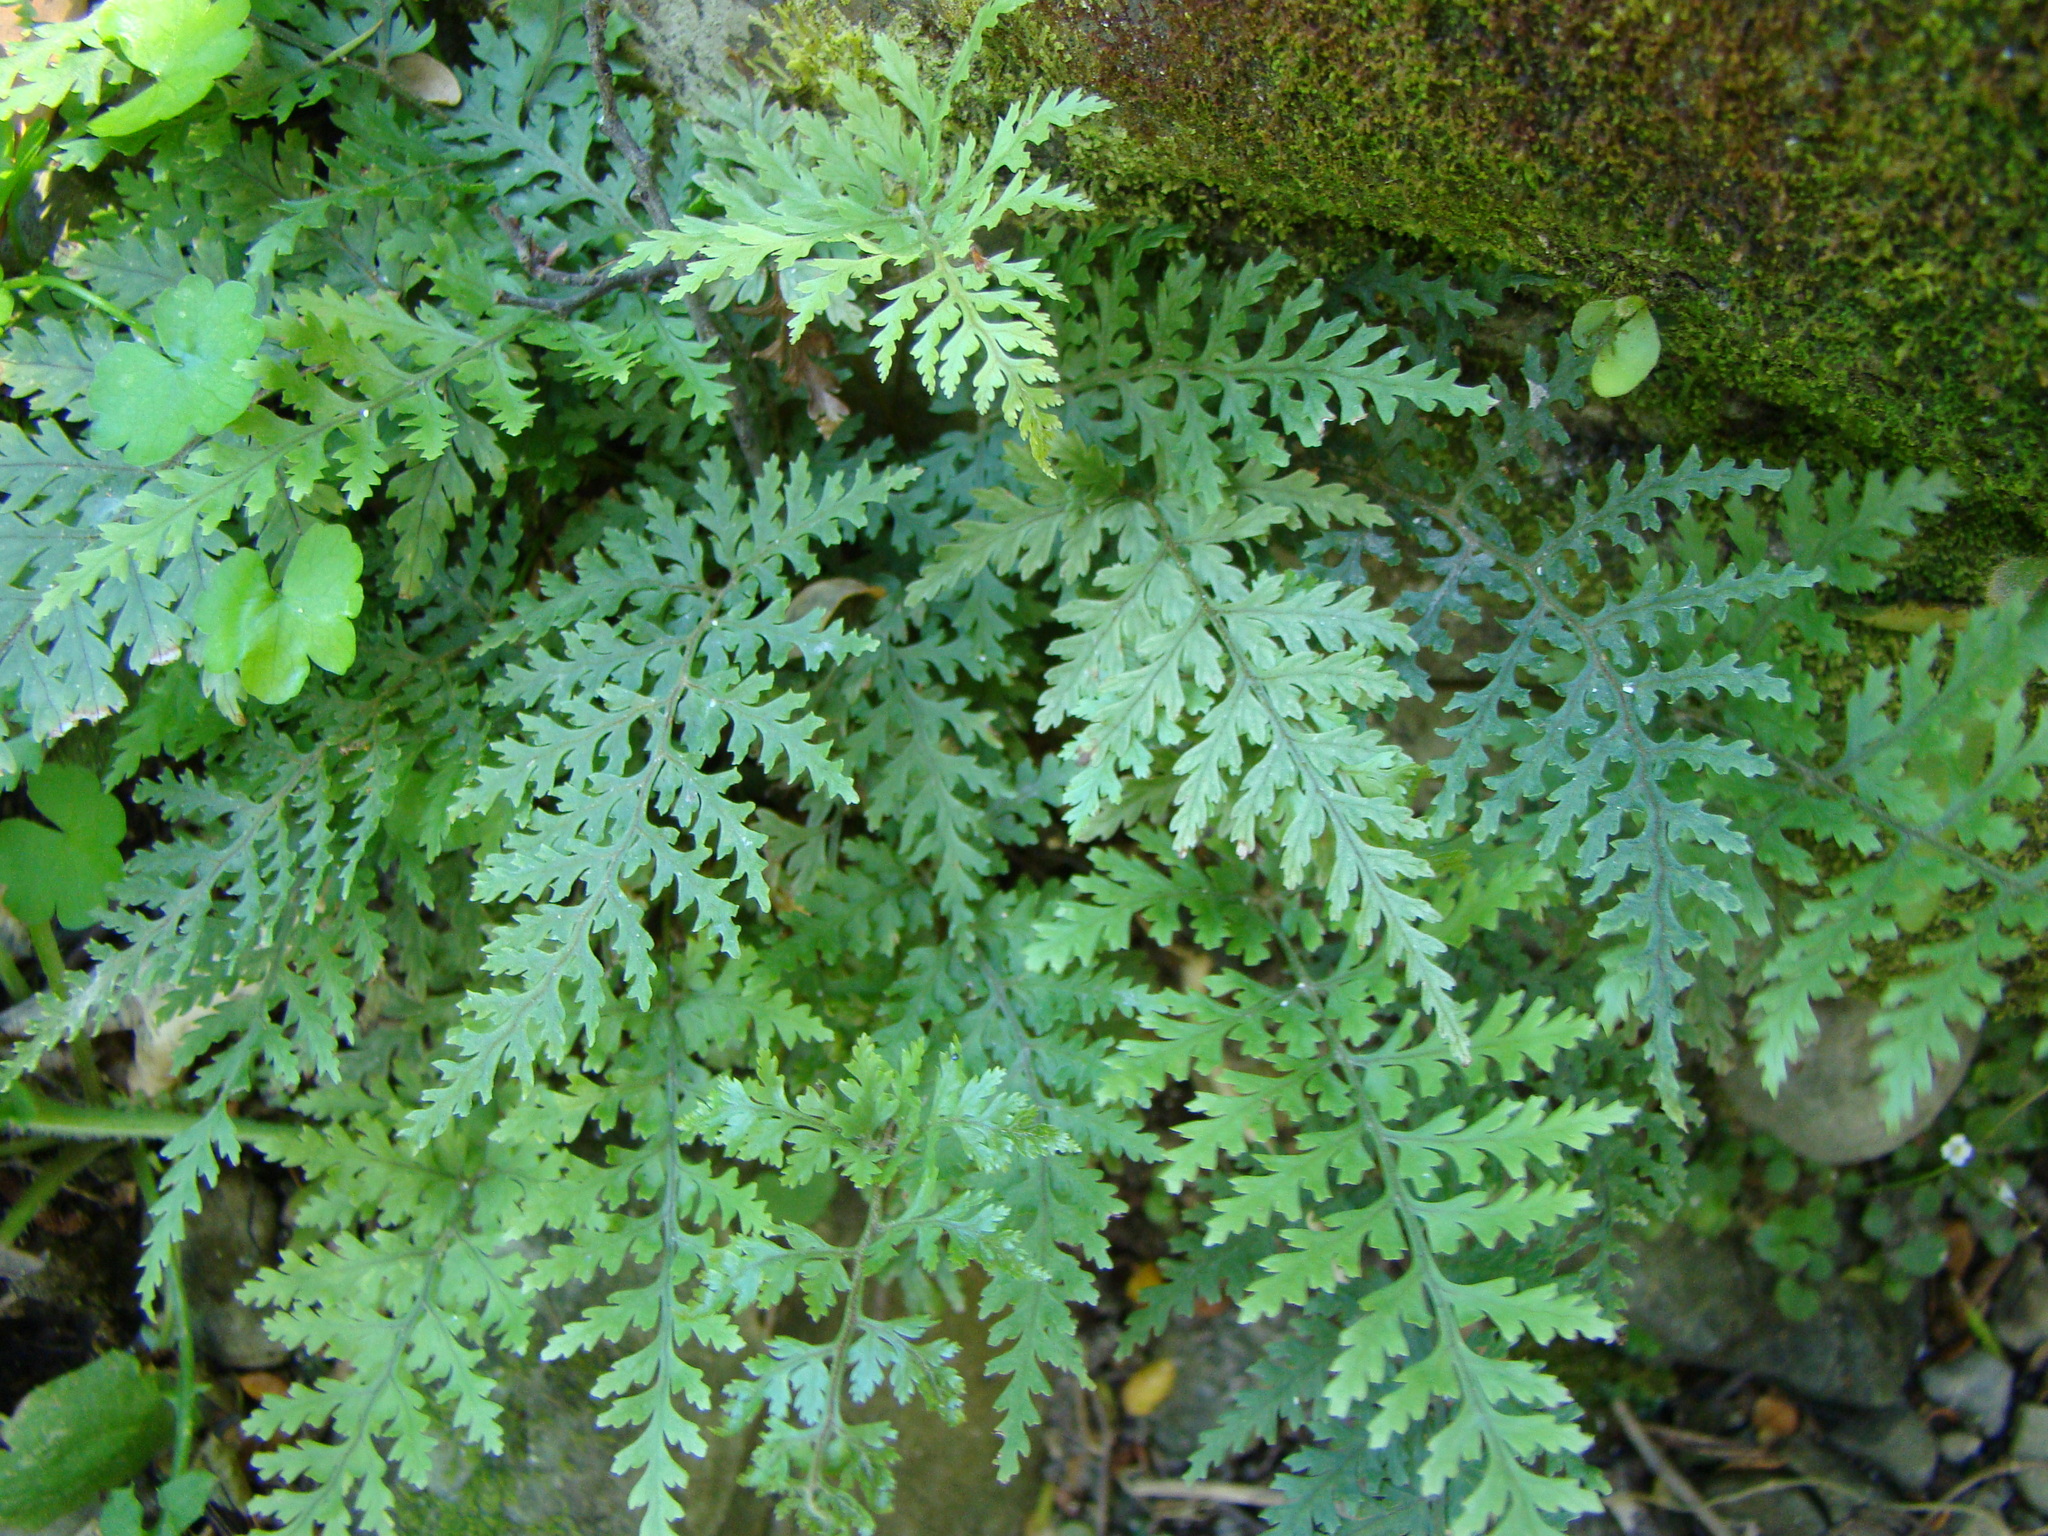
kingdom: Plantae
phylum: Tracheophyta
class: Polypodiopsida
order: Polypodiales
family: Dryopteridaceae
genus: Parapolystichum
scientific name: Parapolystichum glabellum
